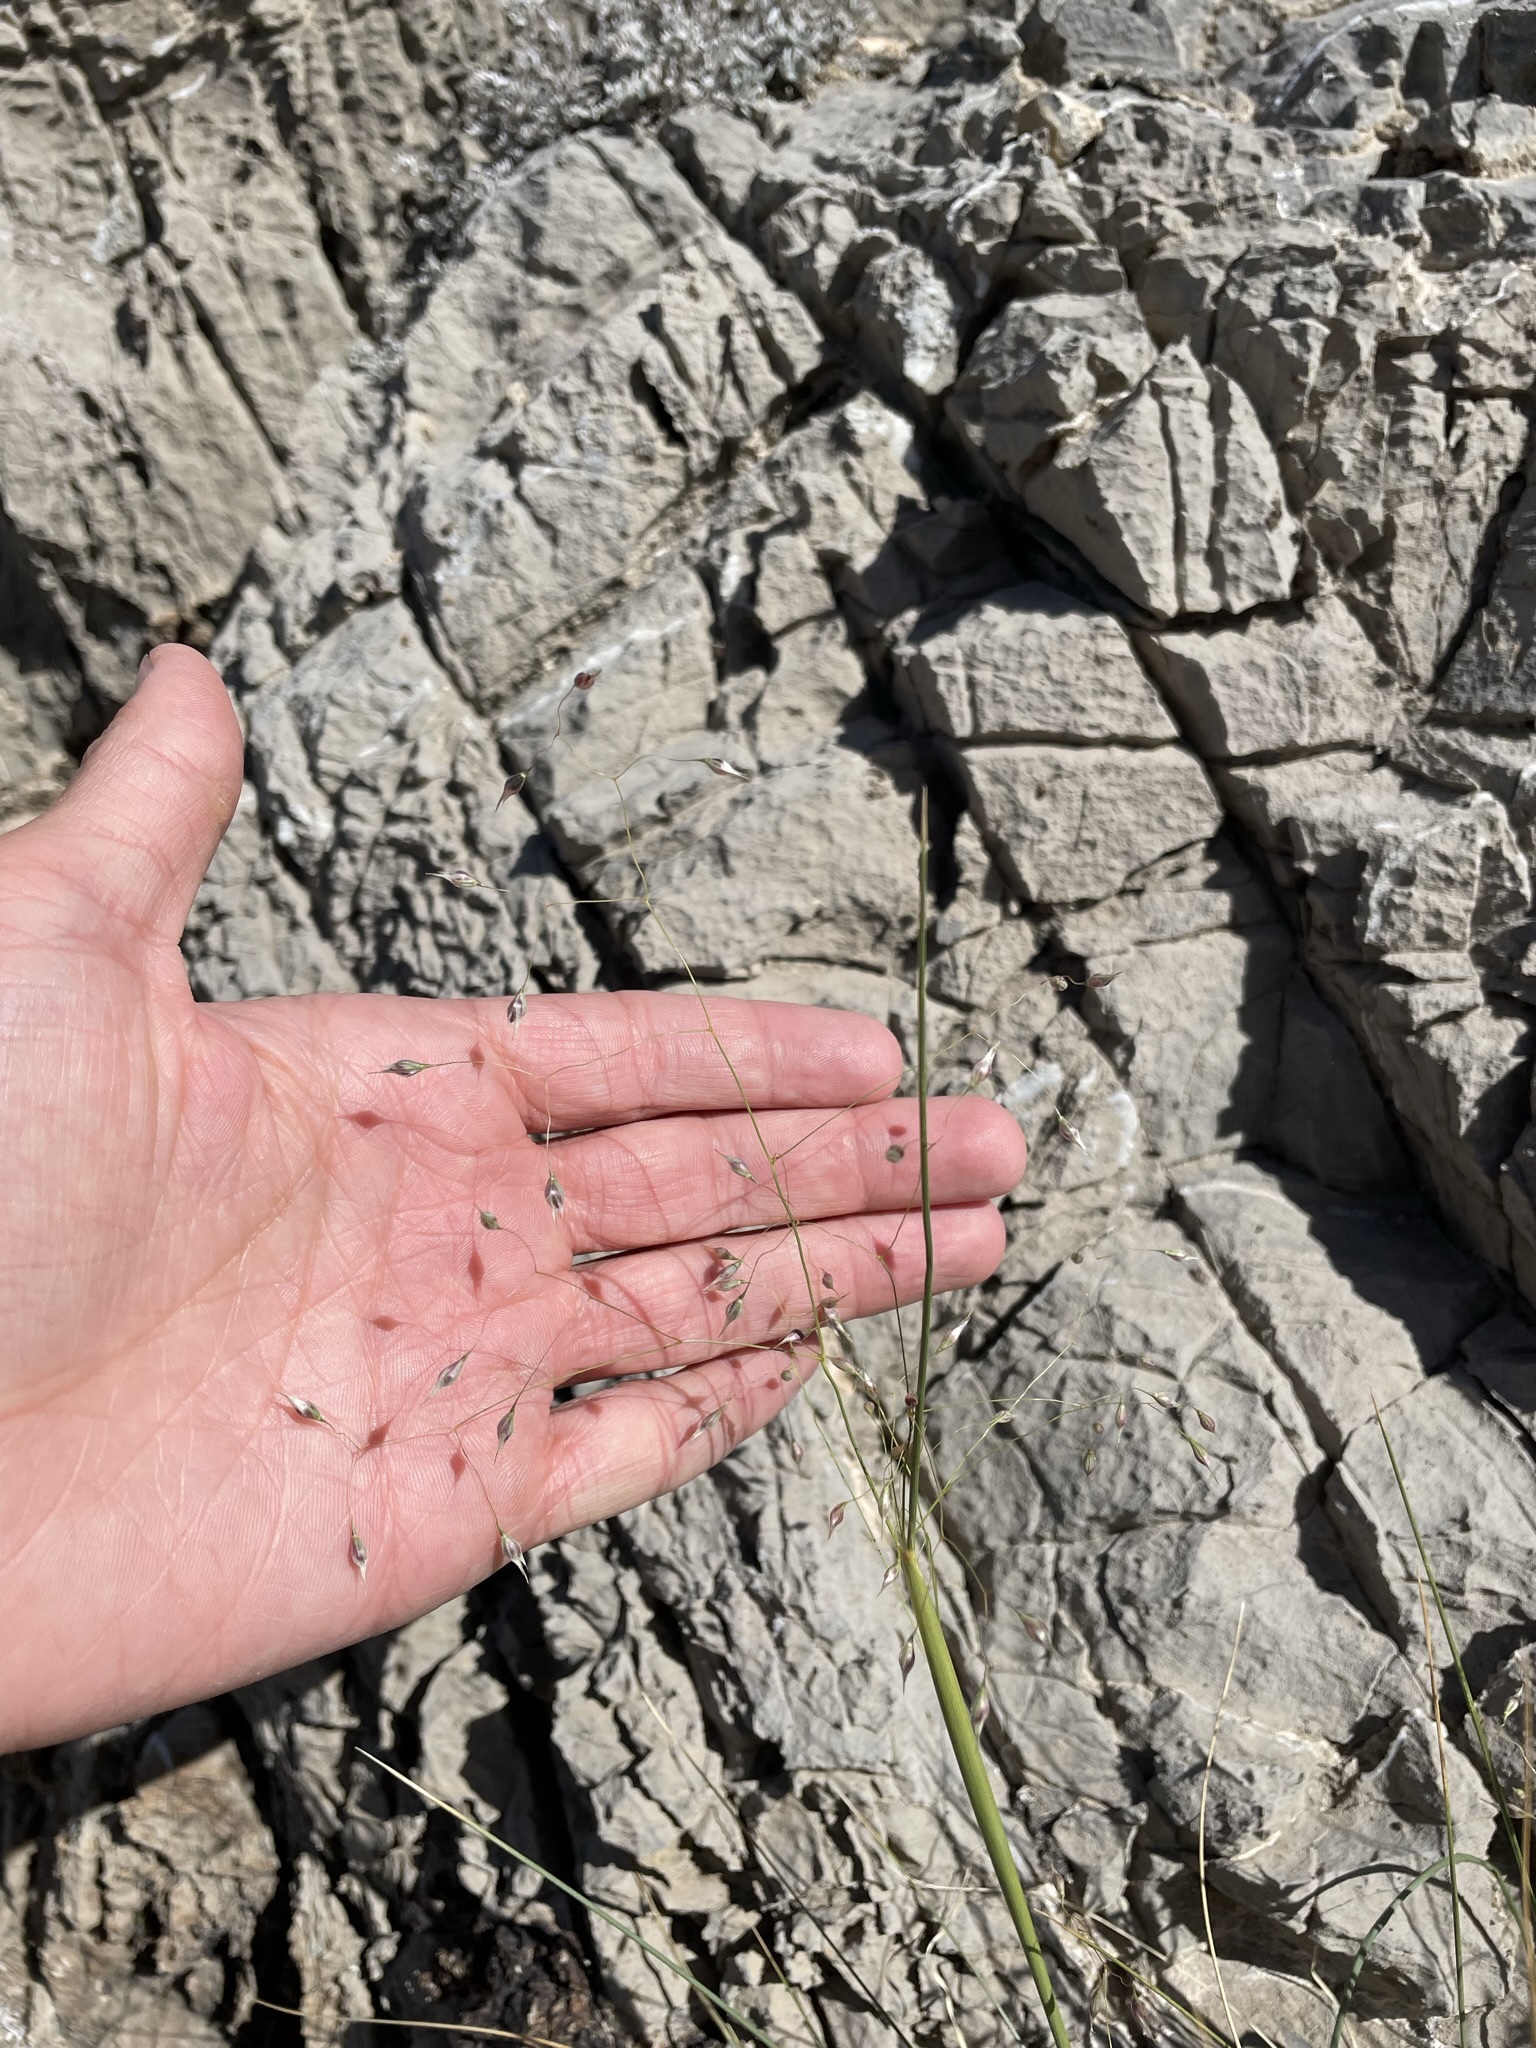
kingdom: Plantae
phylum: Tracheophyta
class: Liliopsida
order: Poales
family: Poaceae
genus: Eriocoma
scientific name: Eriocoma hymenoides
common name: Indian mountain ricegrass
